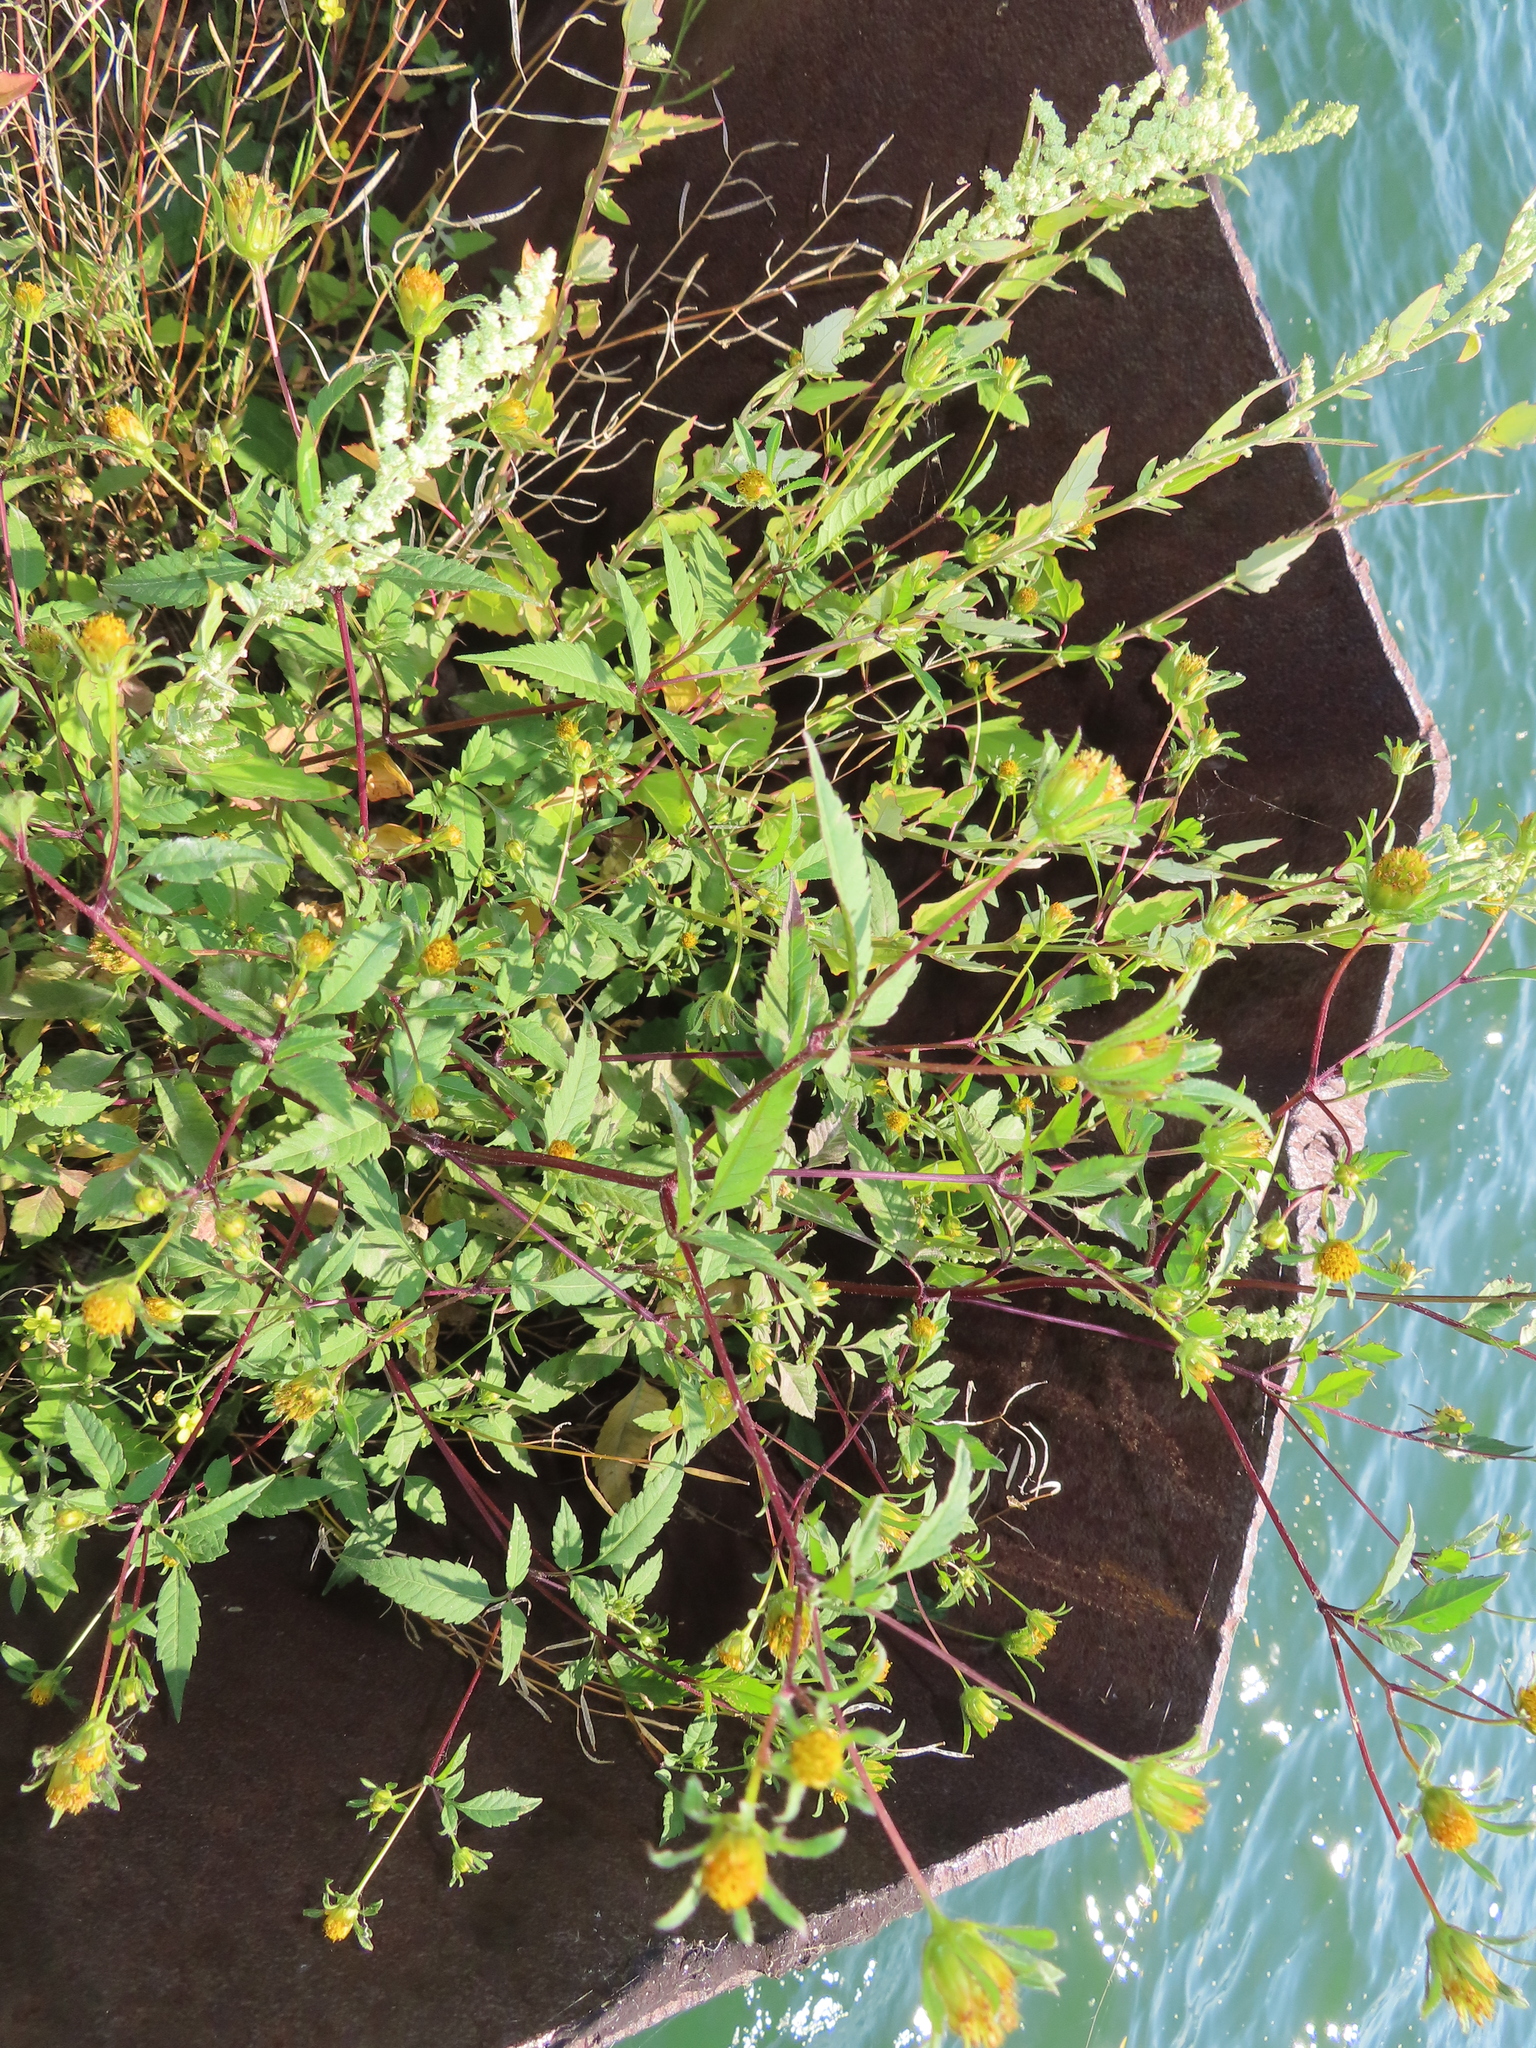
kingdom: Plantae
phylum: Tracheophyta
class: Magnoliopsida
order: Asterales
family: Asteraceae
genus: Bidens
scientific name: Bidens frondosa
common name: Beggarticks
